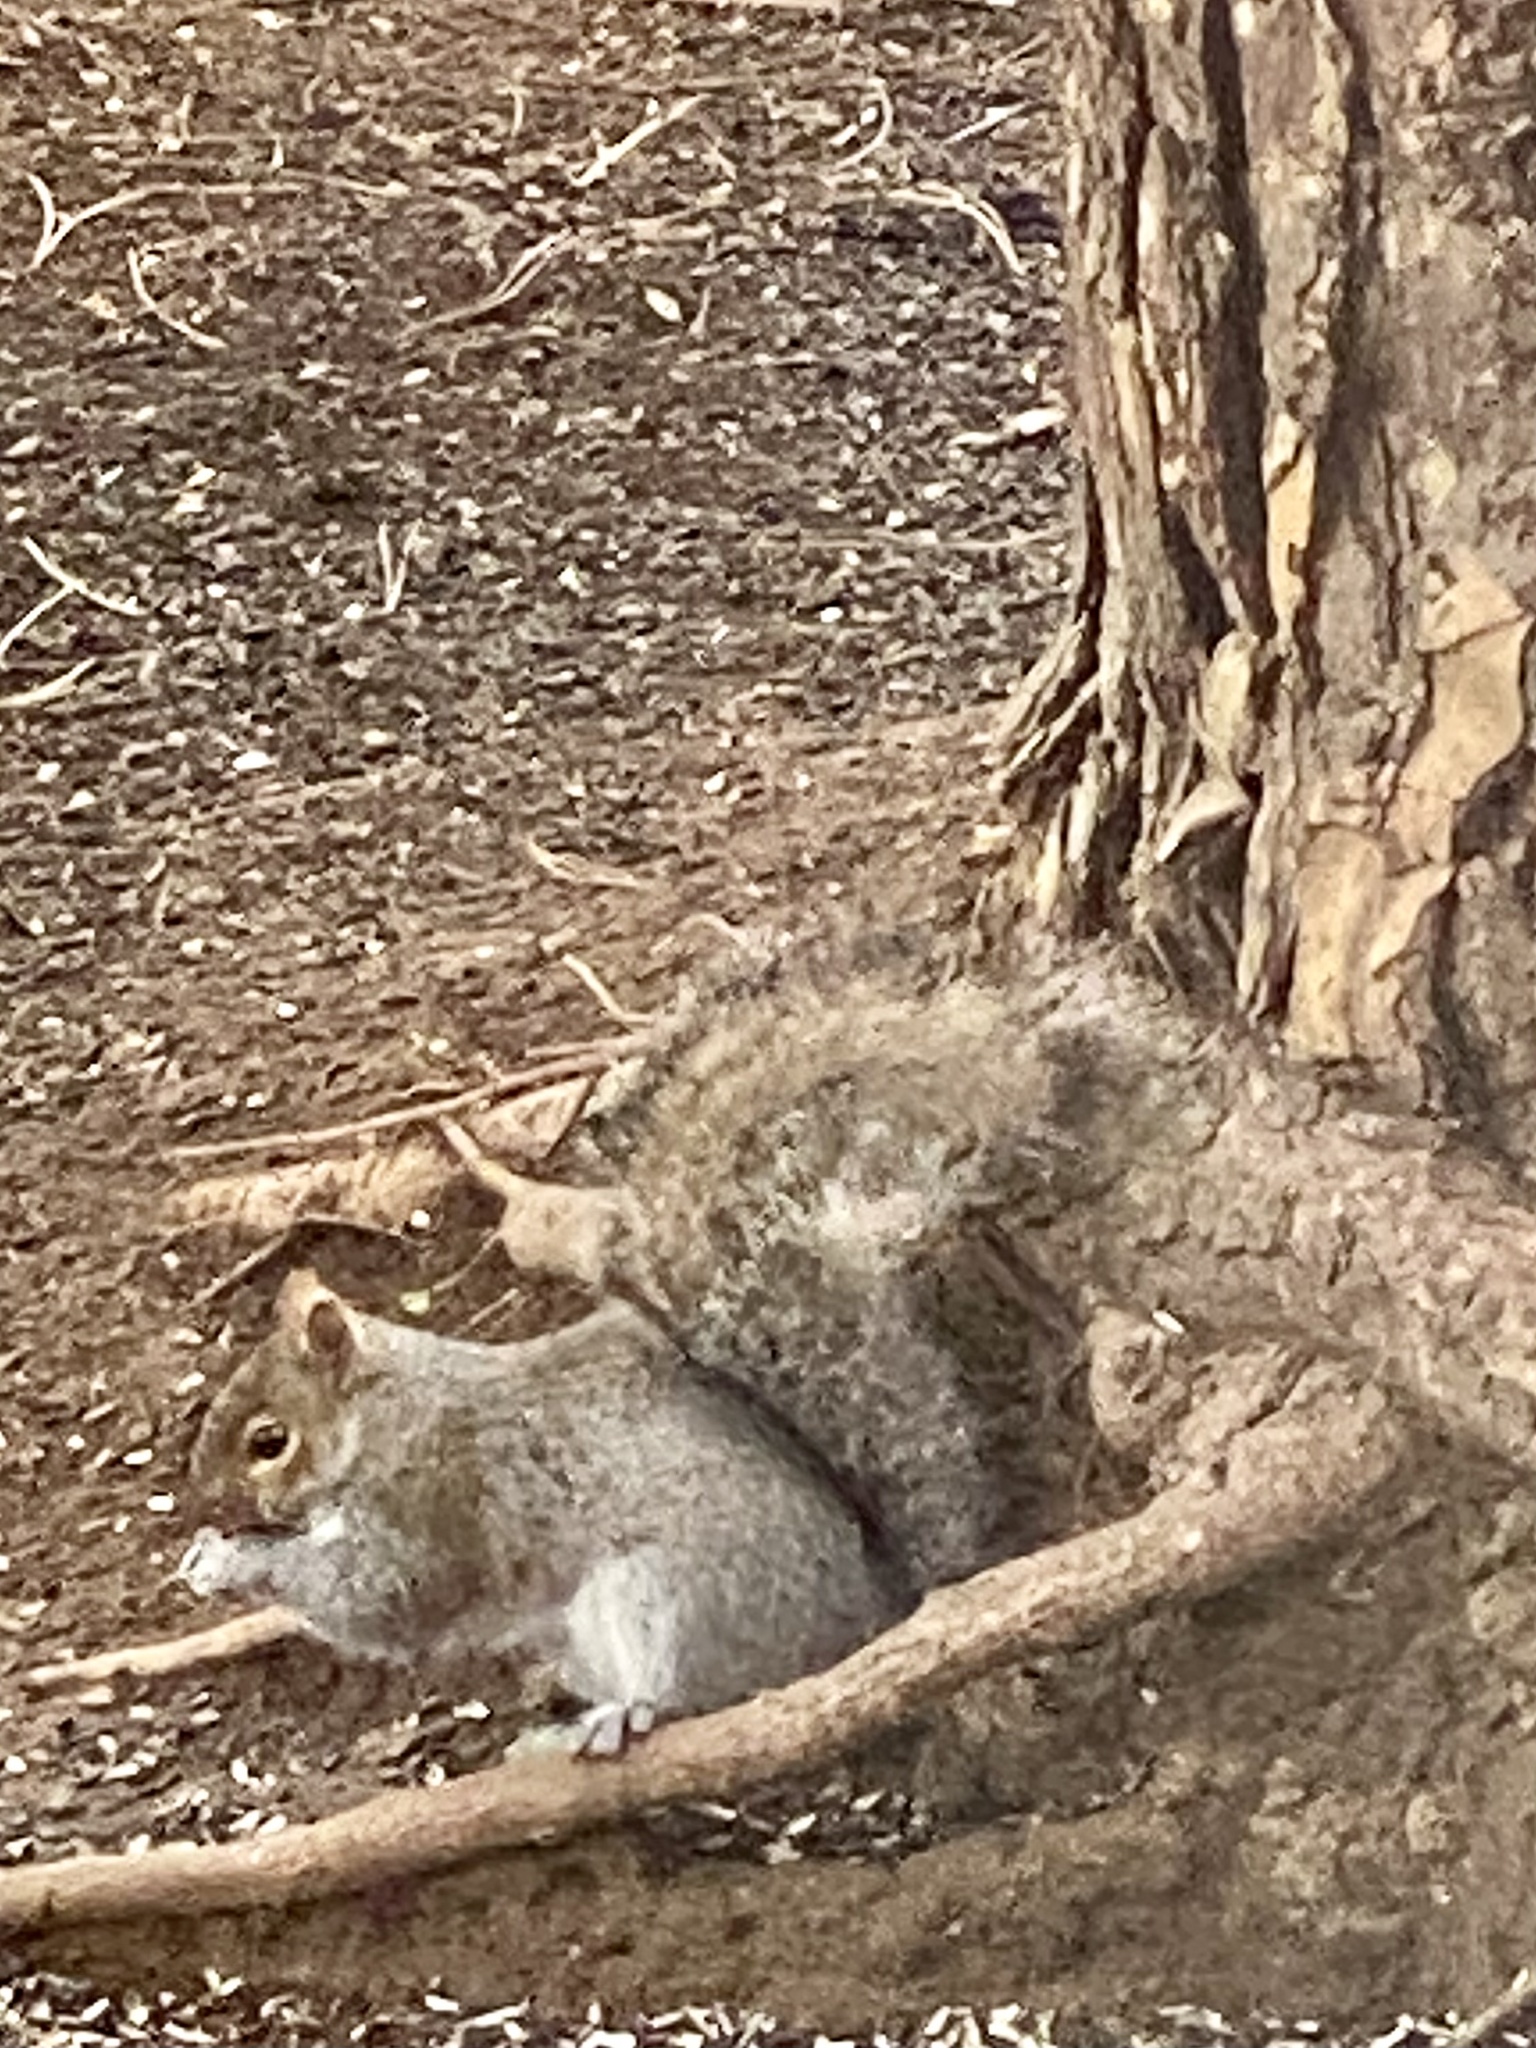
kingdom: Animalia
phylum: Chordata
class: Mammalia
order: Rodentia
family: Sciuridae
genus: Sciurus
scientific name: Sciurus carolinensis
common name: Eastern gray squirrel
